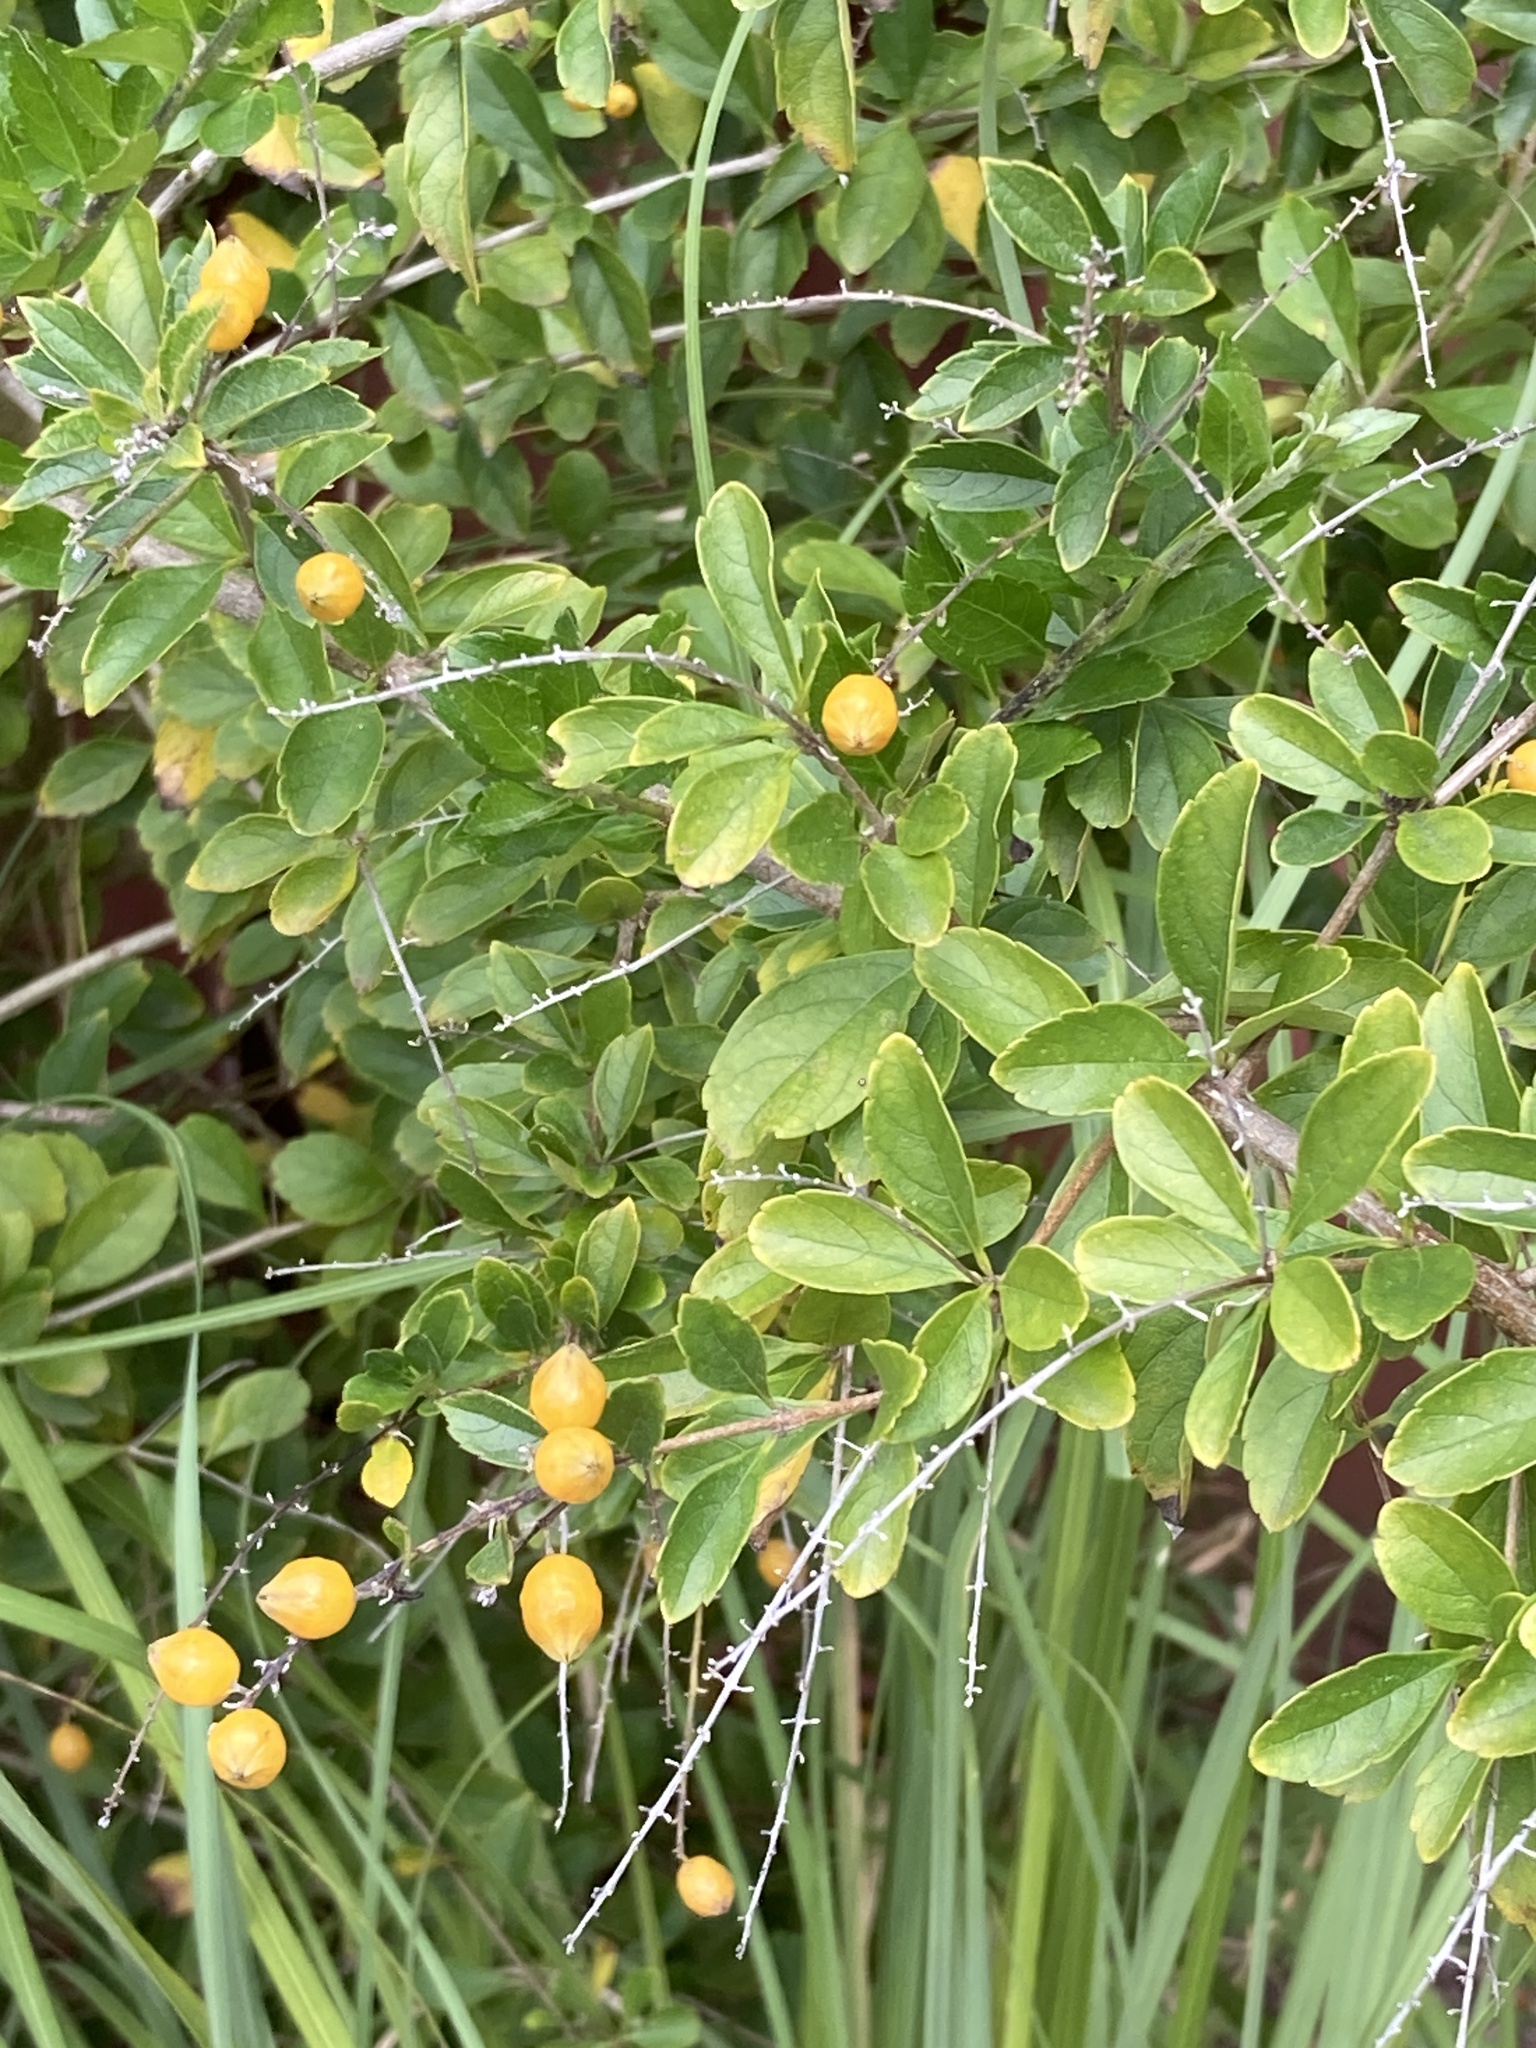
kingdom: Plantae
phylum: Tracheophyta
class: Magnoliopsida
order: Lamiales
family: Verbenaceae
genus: Duranta
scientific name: Duranta erecta
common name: Golden dewdrops
